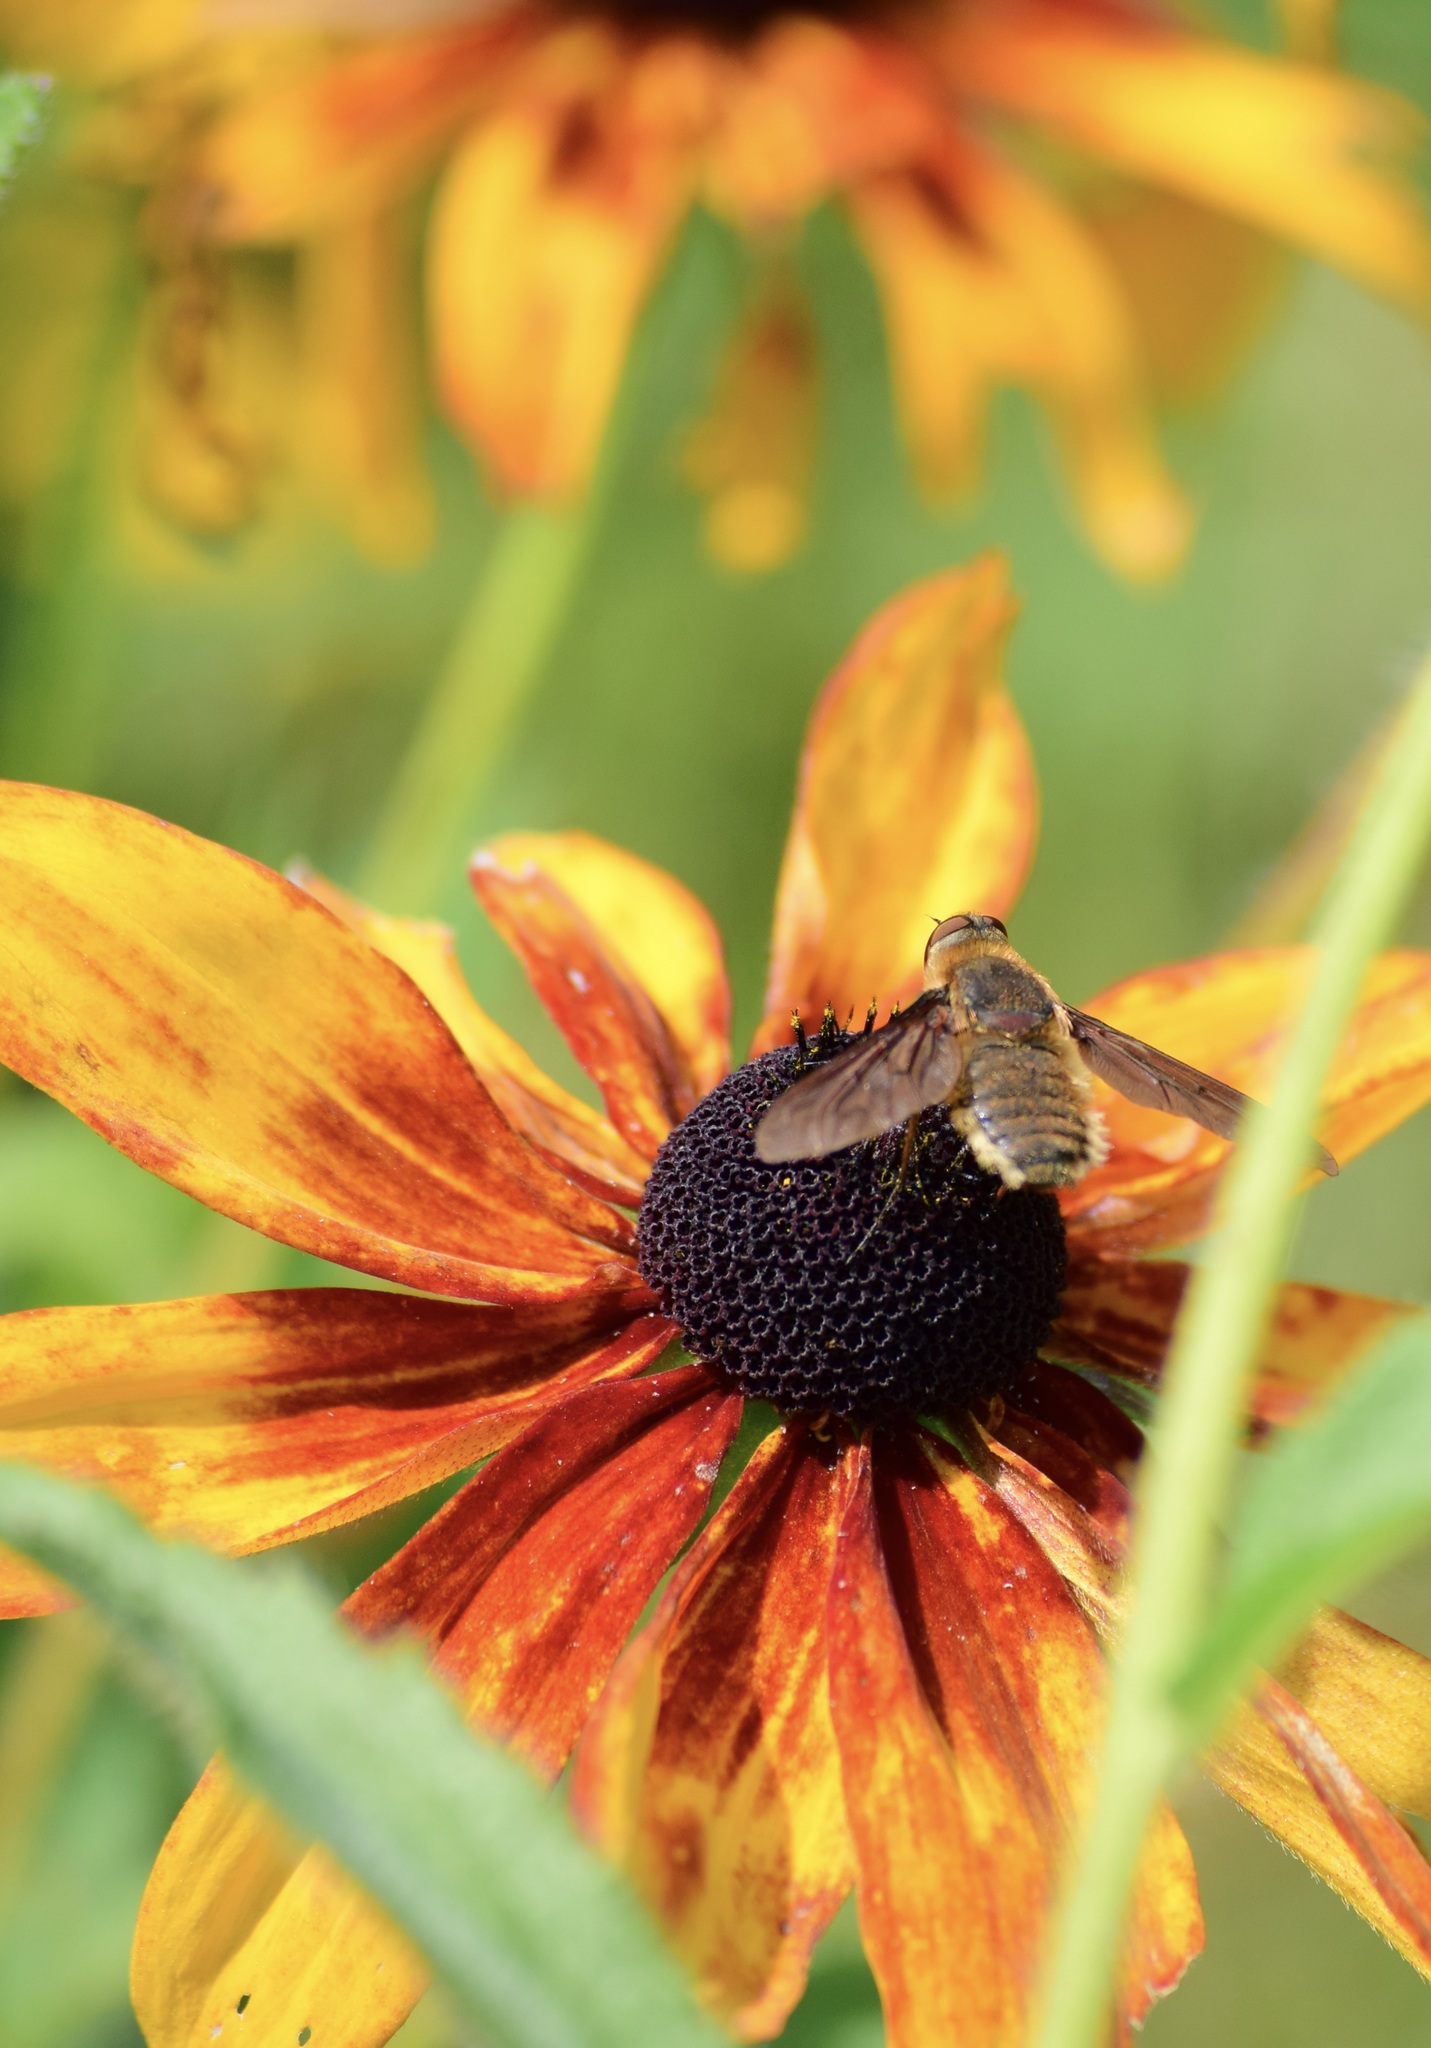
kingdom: Animalia
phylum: Arthropoda
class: Insecta
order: Diptera
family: Bombyliidae
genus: Poecilanthrax
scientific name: Poecilanthrax tegminipennis
